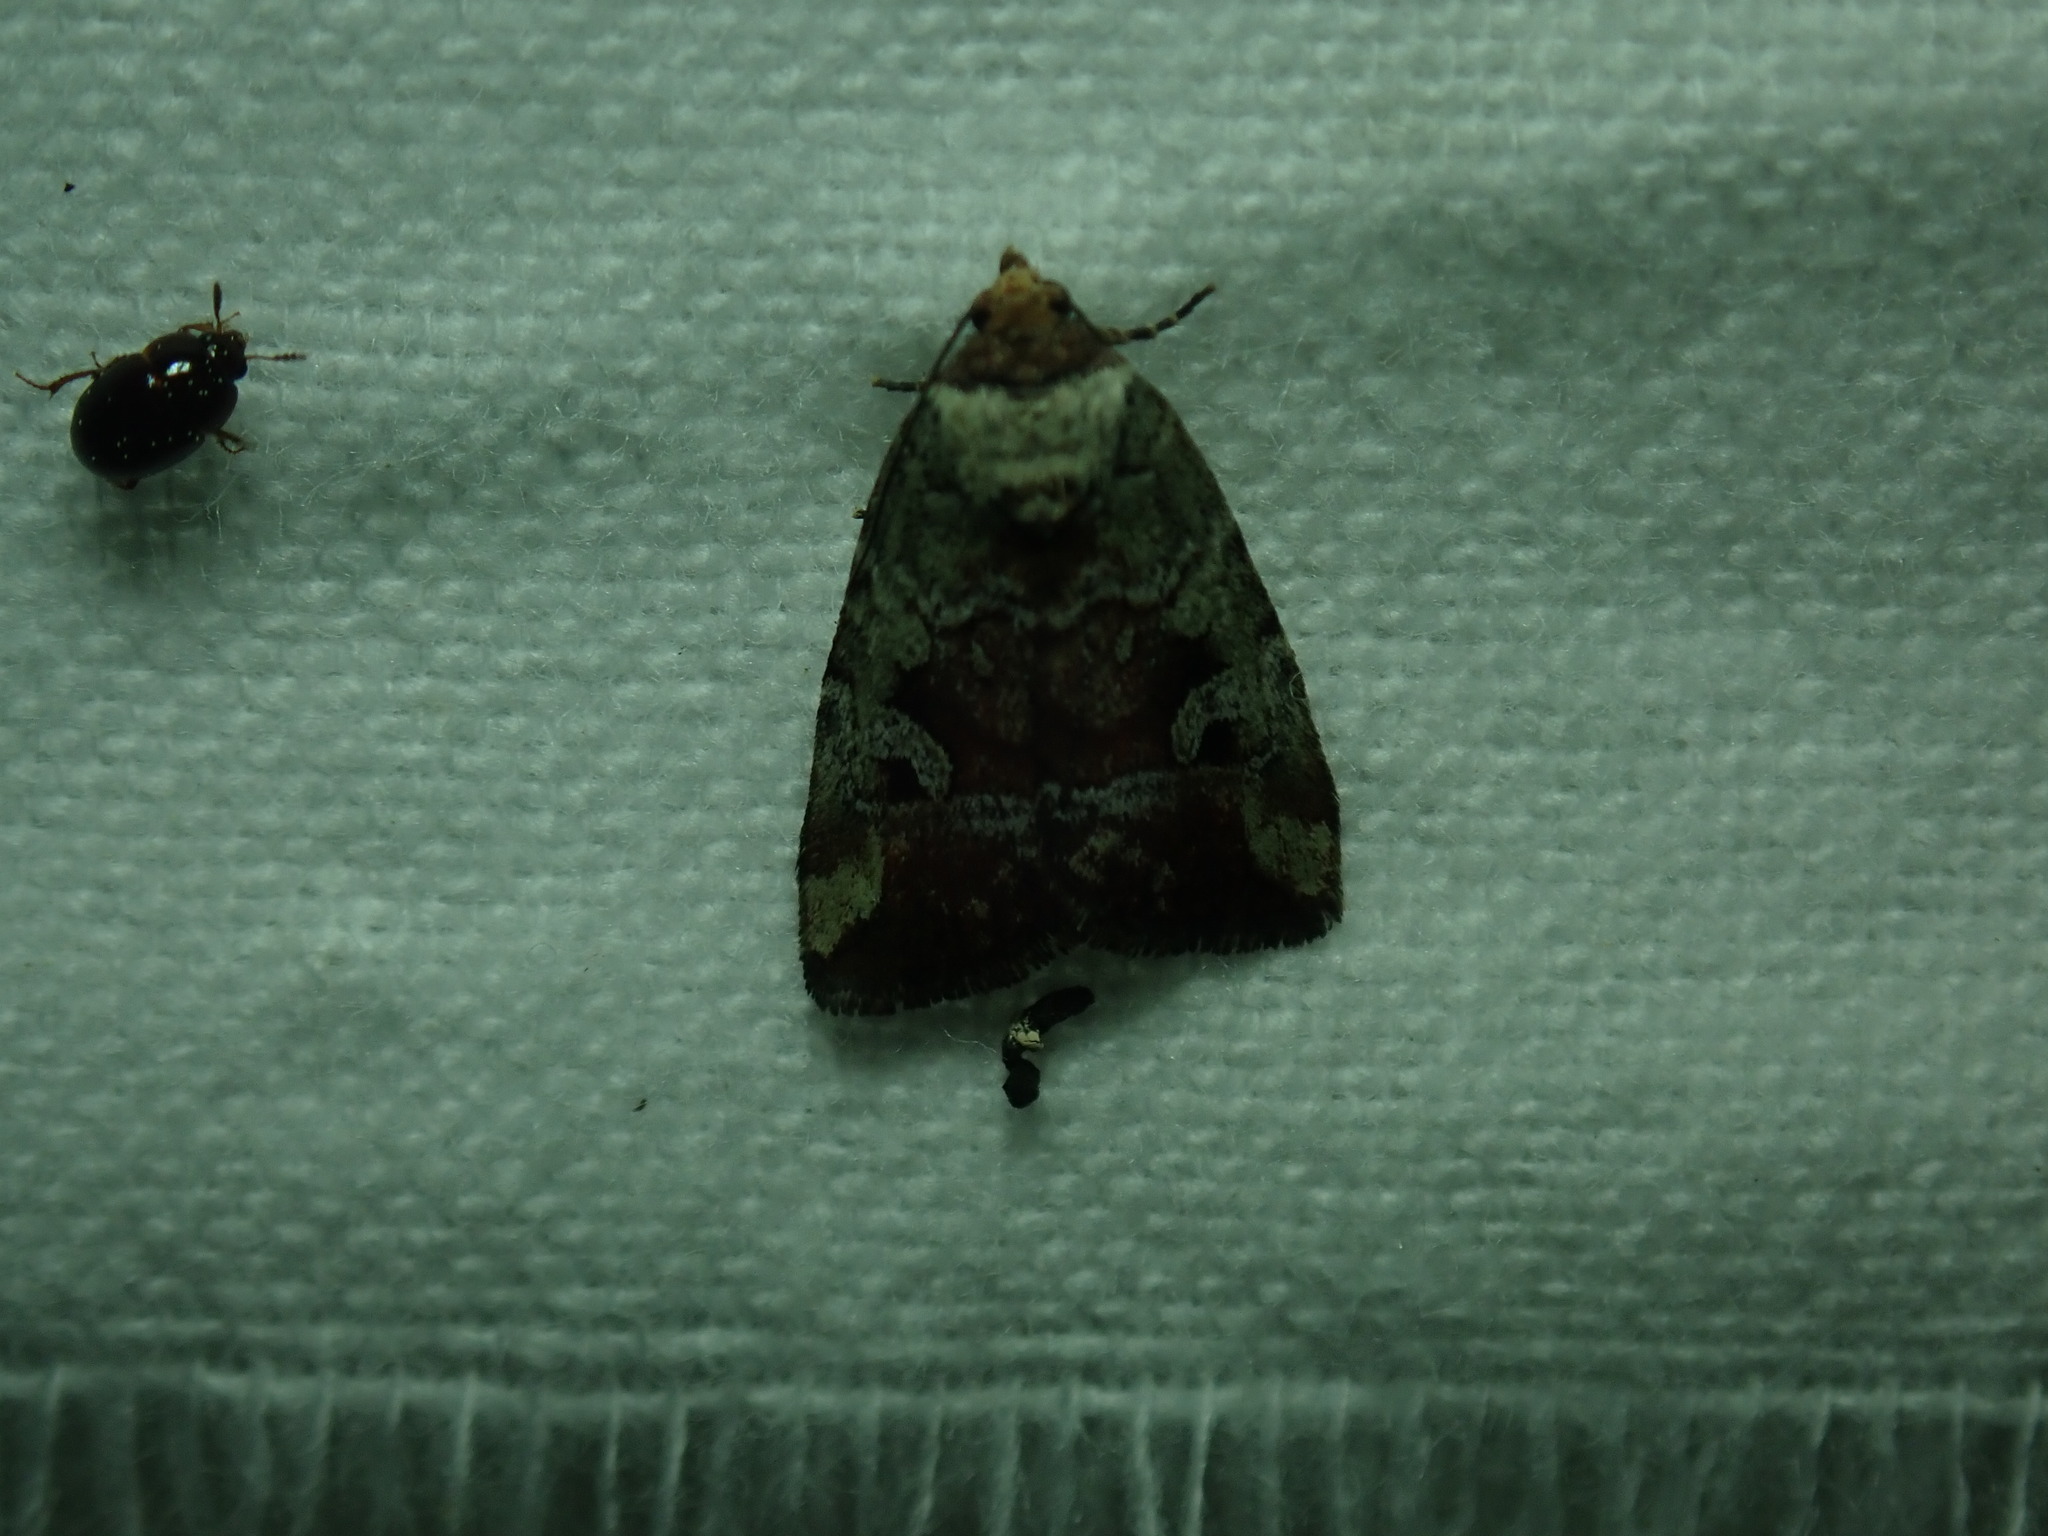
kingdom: Animalia
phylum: Arthropoda
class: Insecta
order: Lepidoptera
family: Noctuidae
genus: Elaphria
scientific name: Elaphria alapallida
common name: Pale-winged midget
